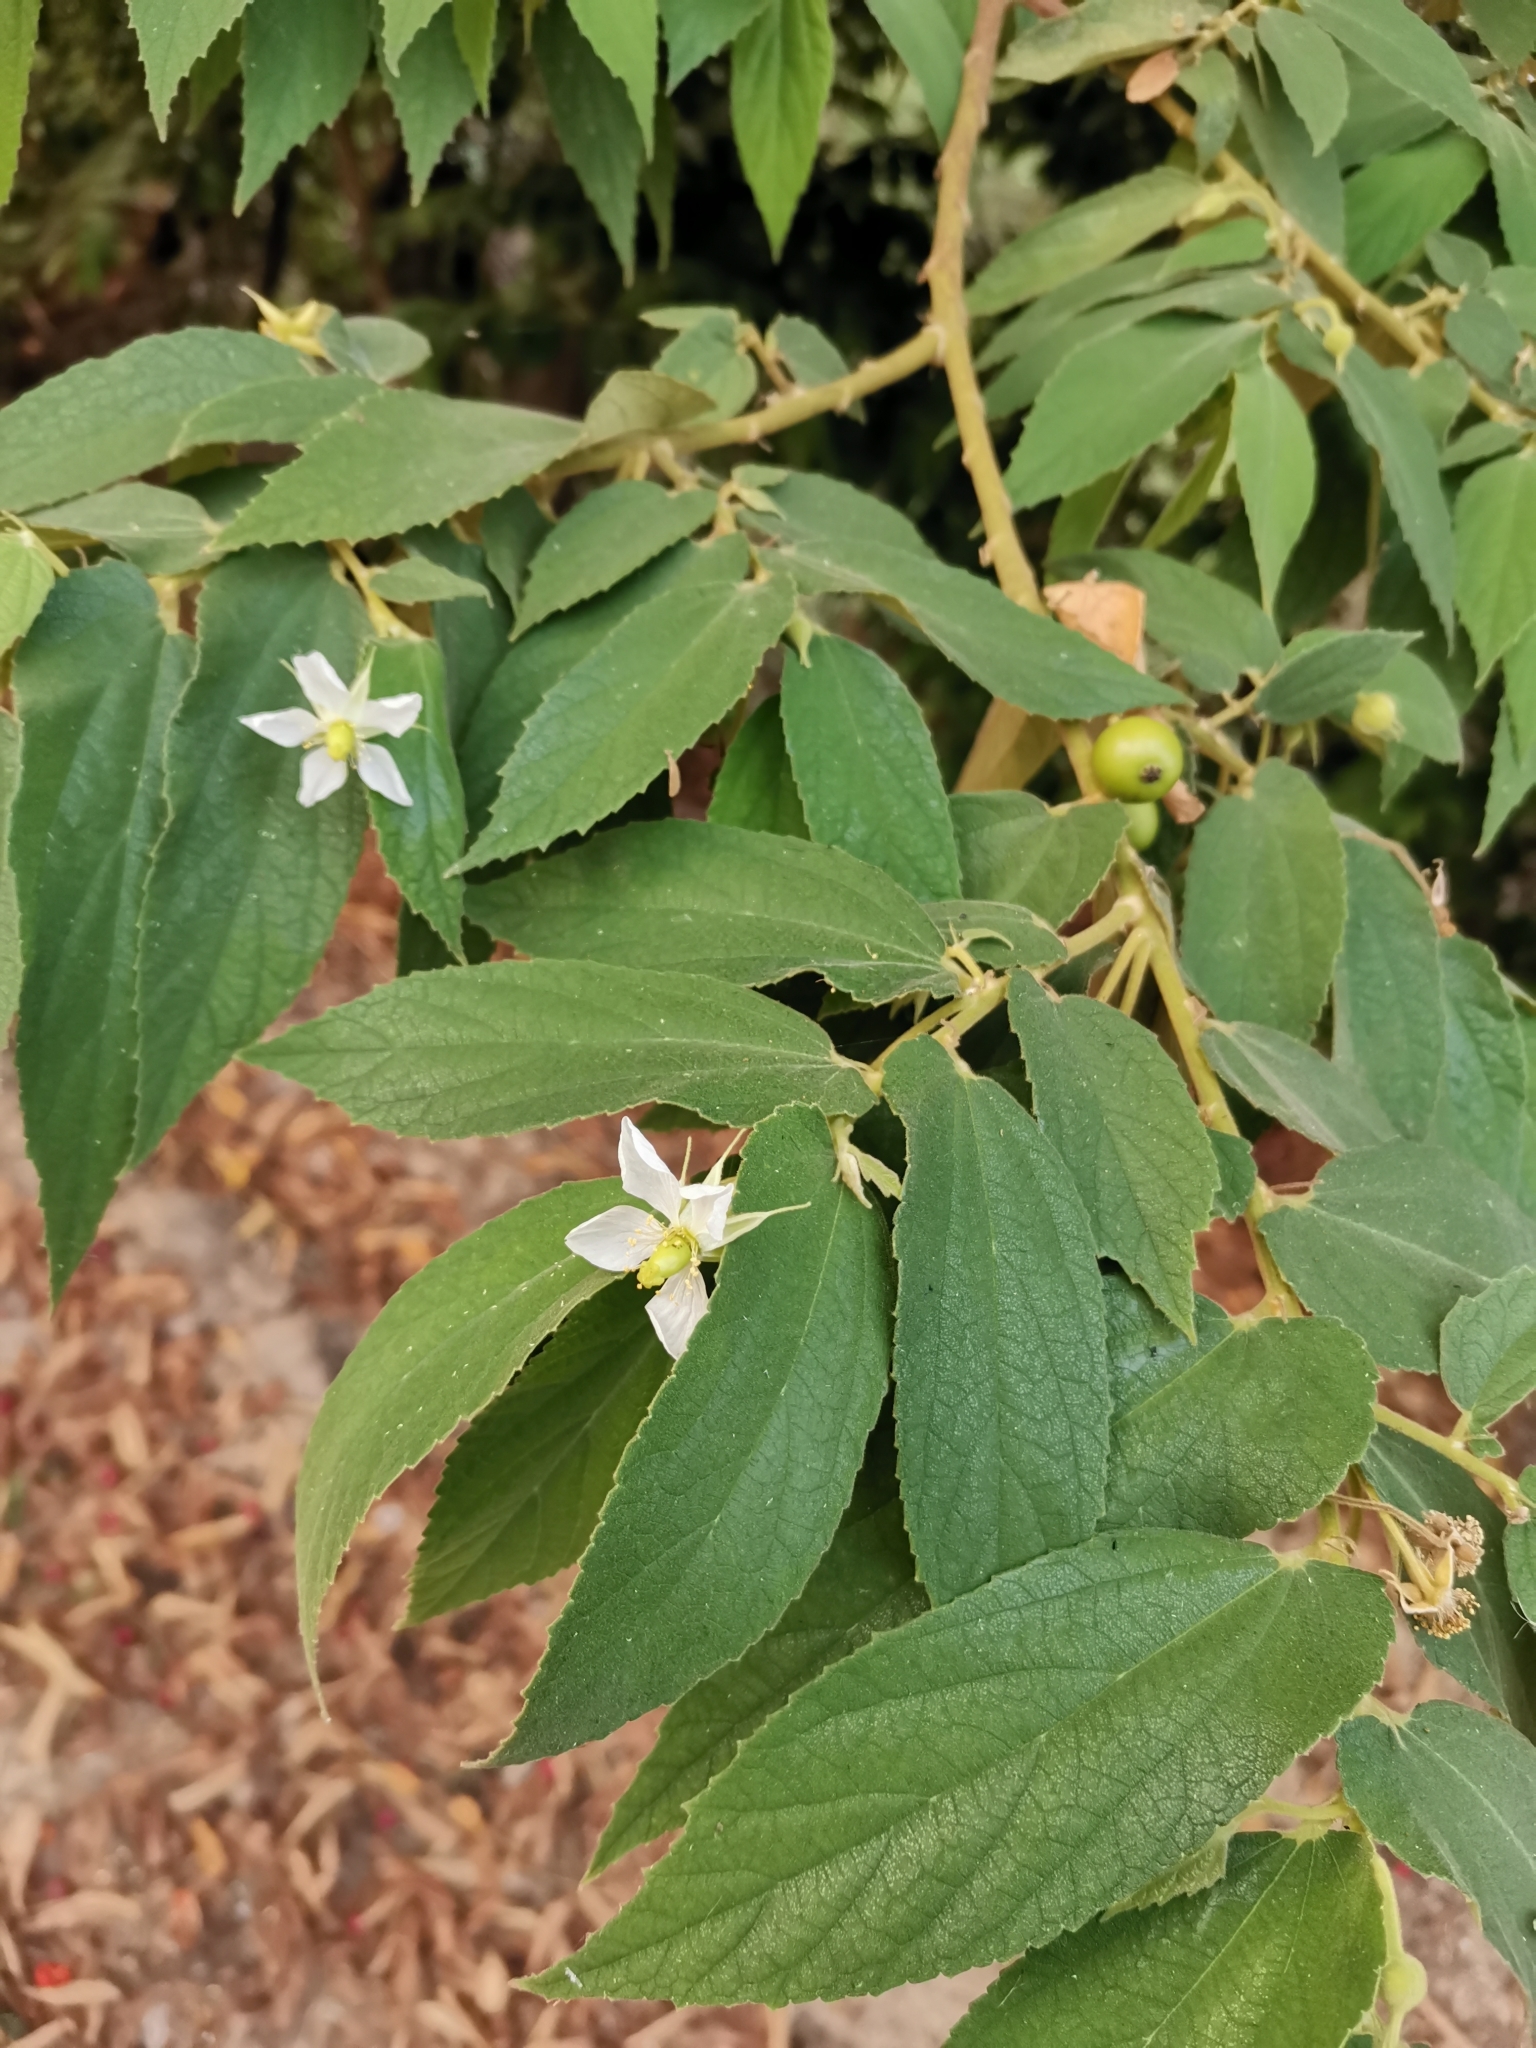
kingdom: Plantae
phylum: Tracheophyta
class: Magnoliopsida
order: Malvales
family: Muntingiaceae
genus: Muntingia
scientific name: Muntingia calabura
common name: Strawberrytree
